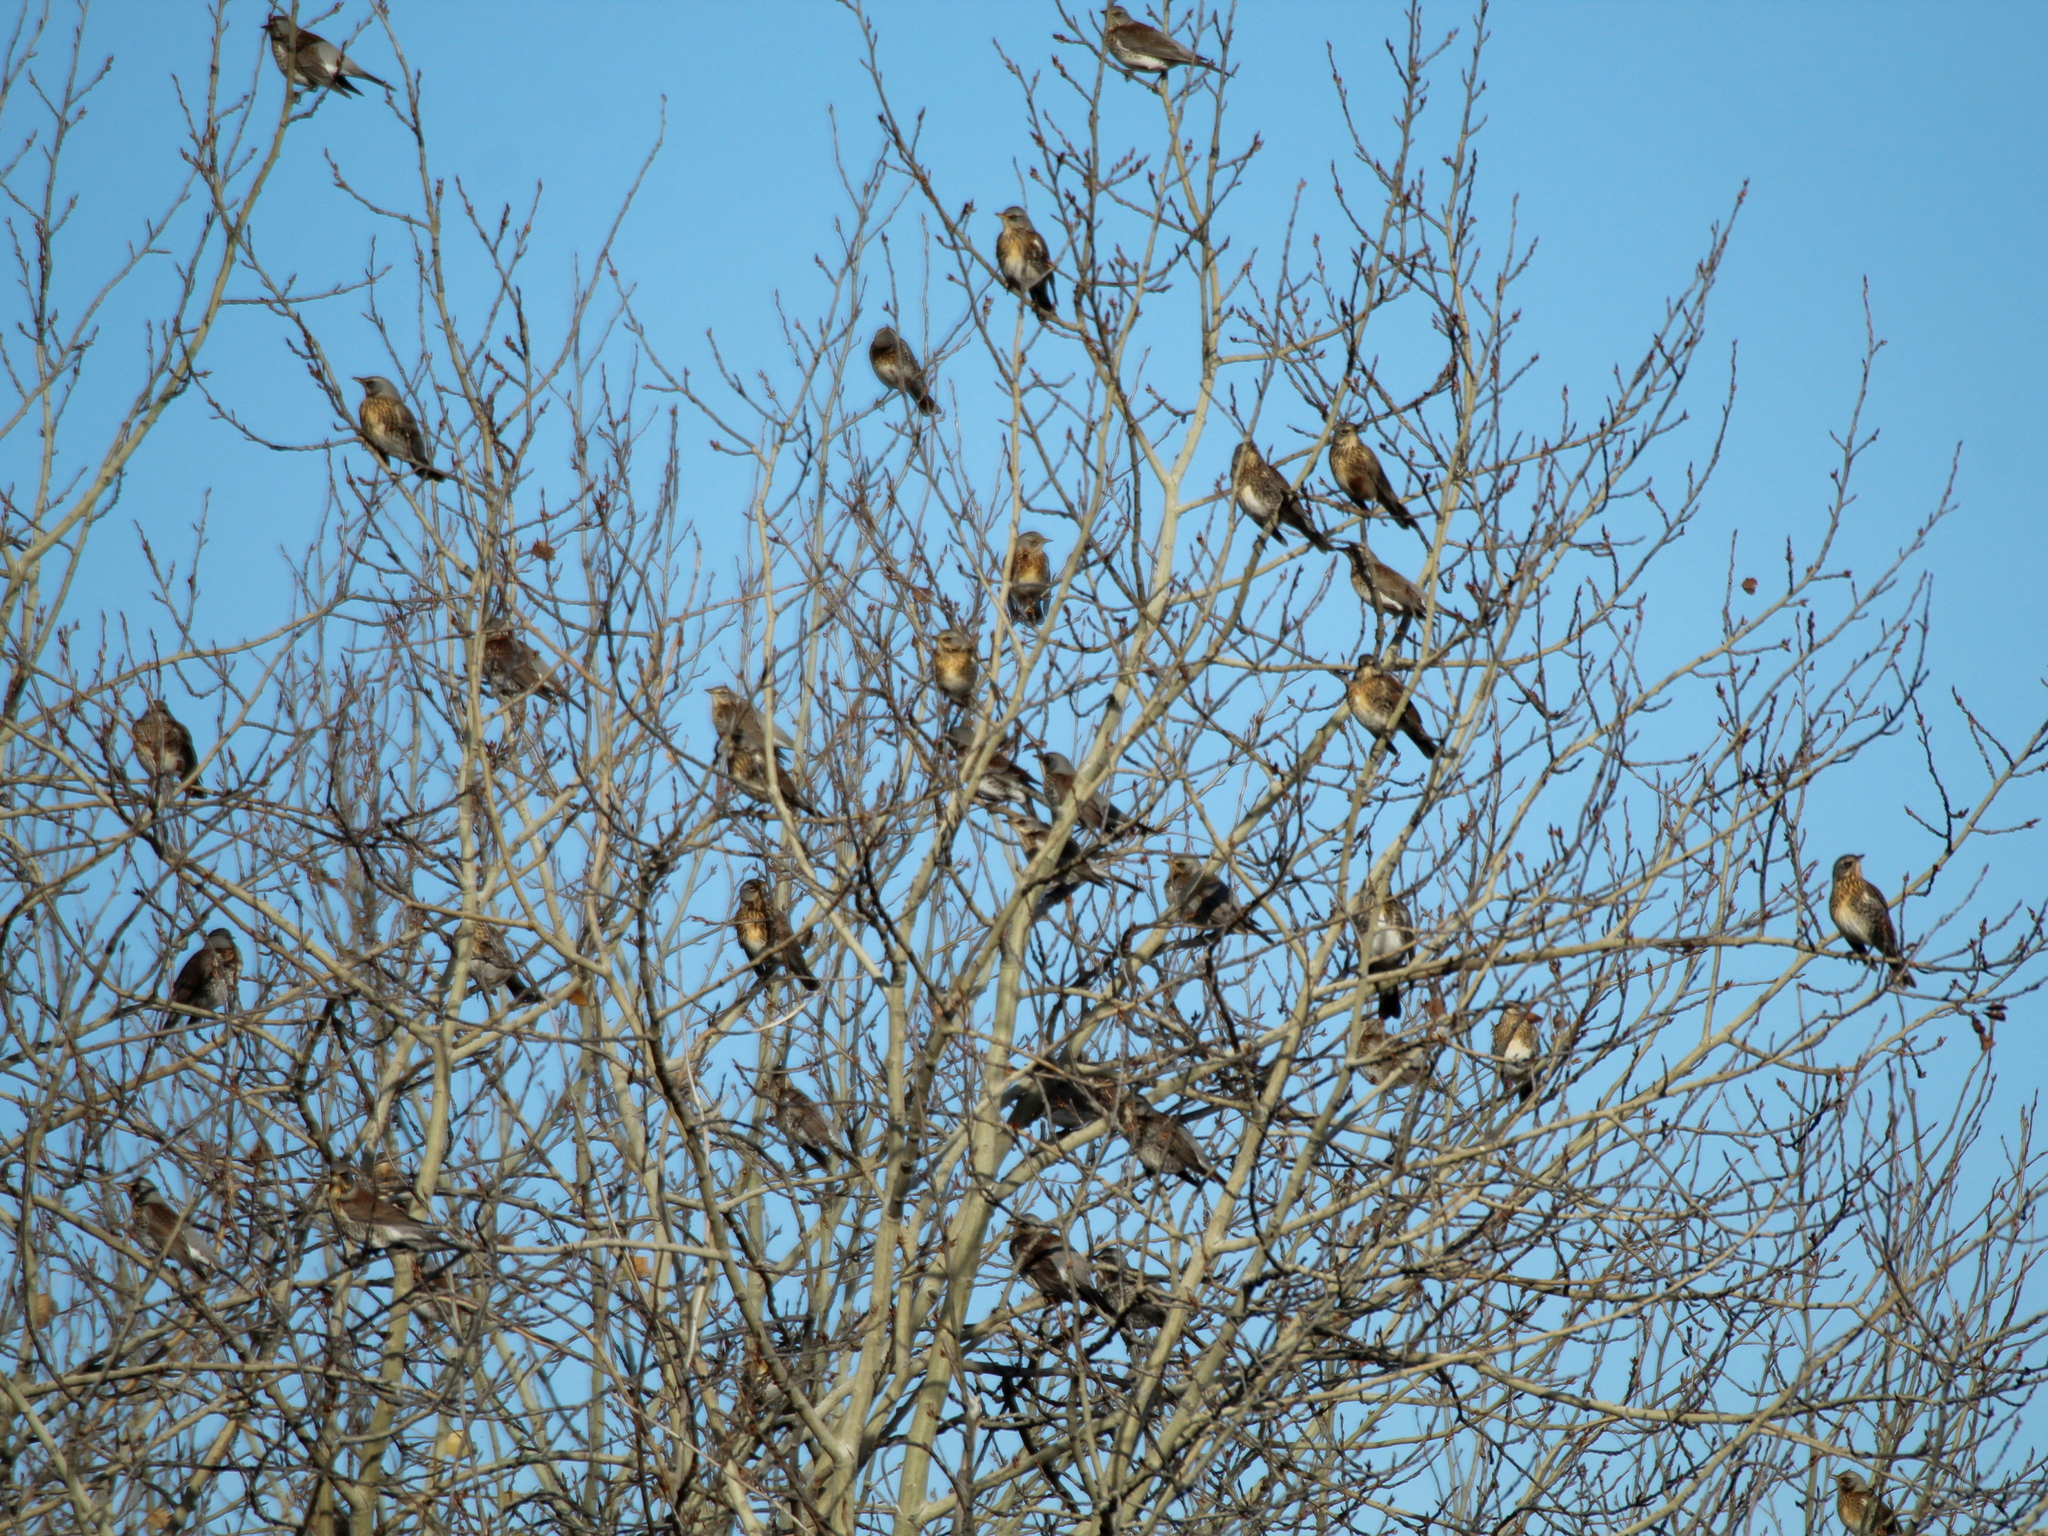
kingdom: Animalia
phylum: Chordata
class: Aves
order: Passeriformes
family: Turdidae
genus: Turdus
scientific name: Turdus pilaris
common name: Fieldfare
